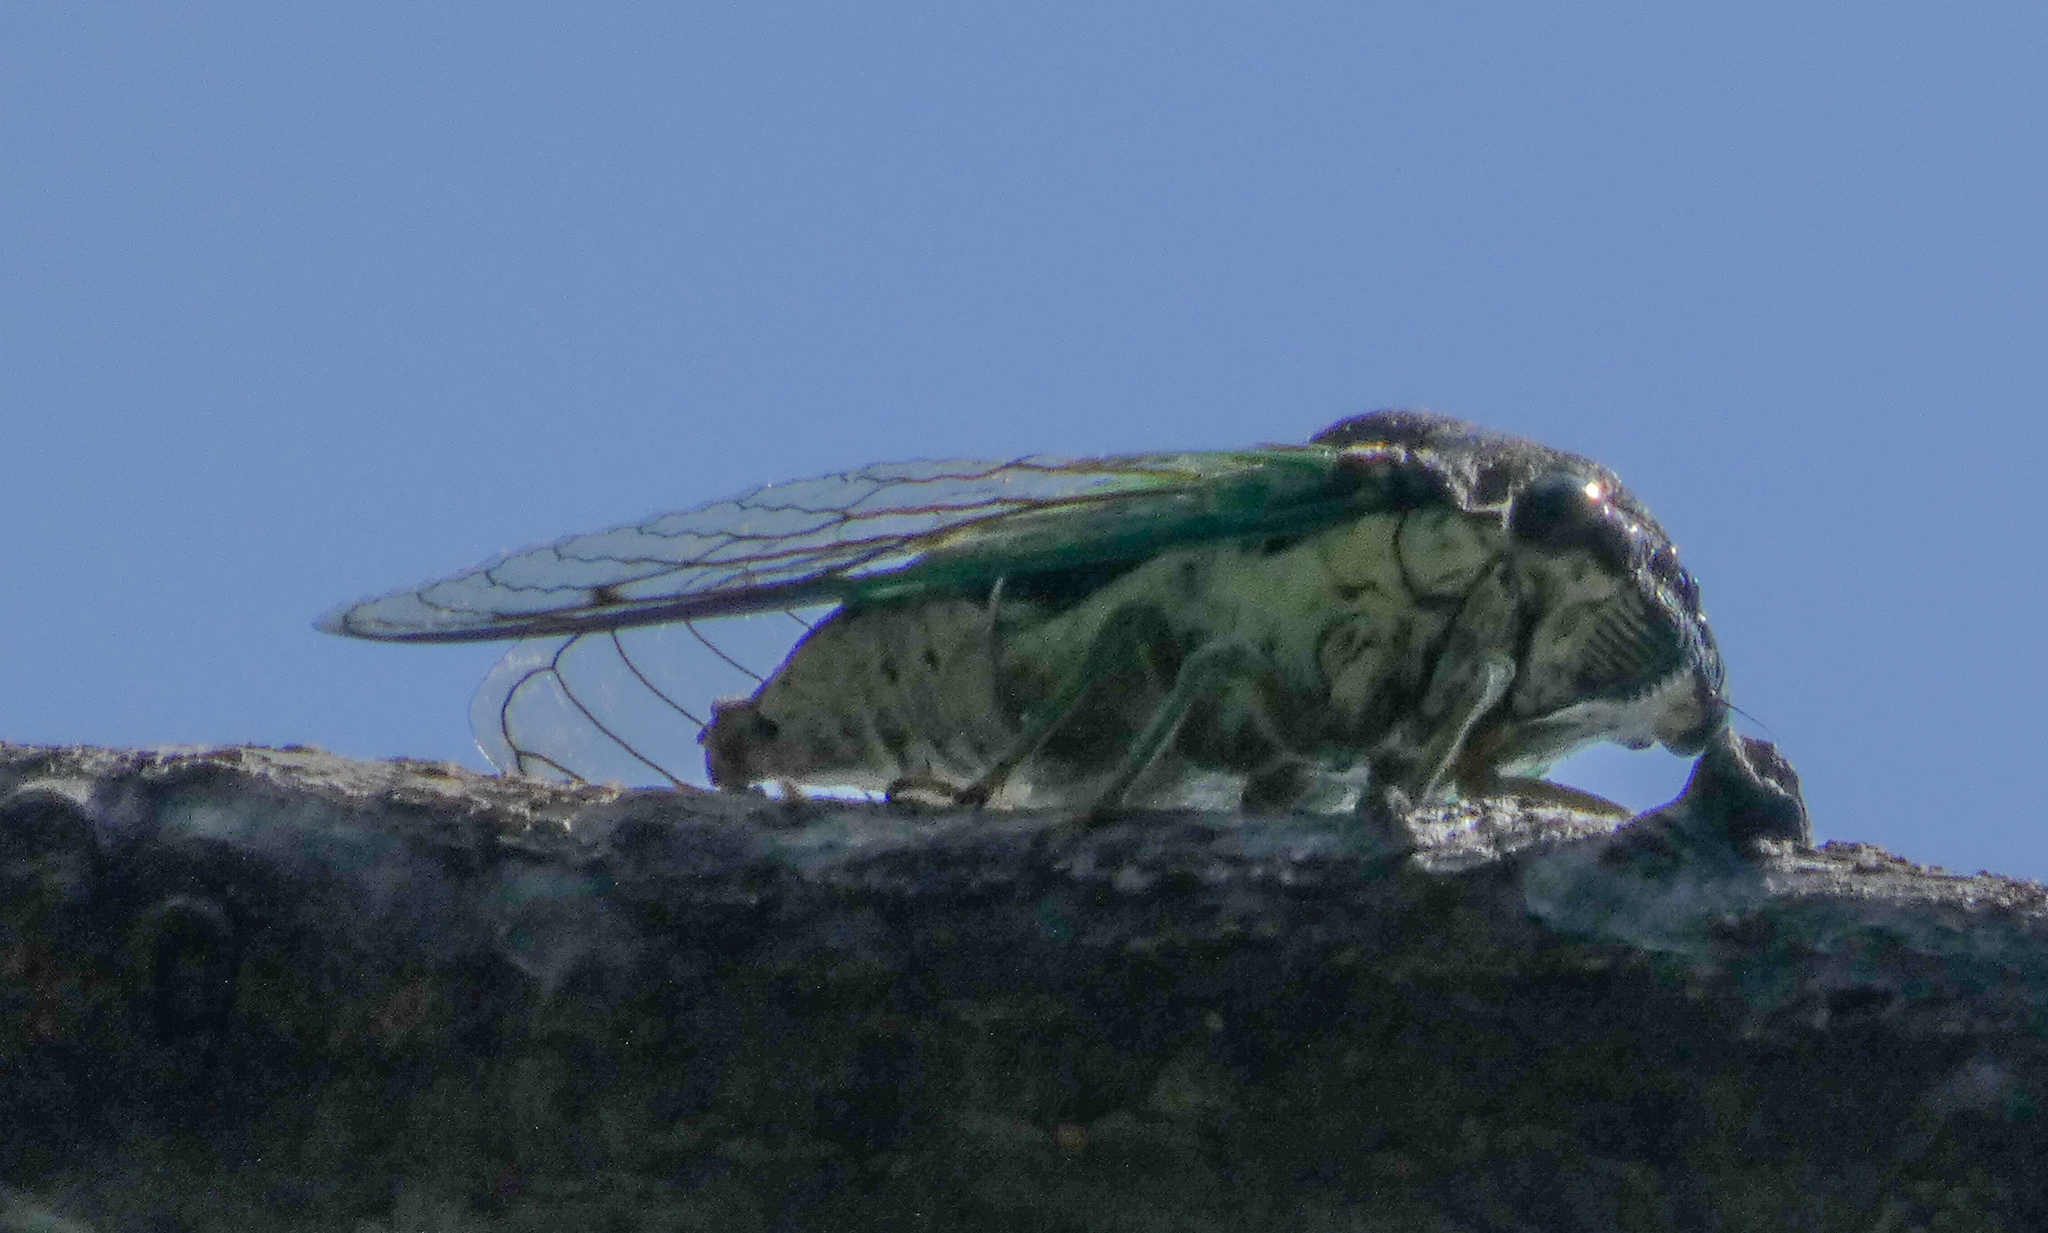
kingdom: Animalia
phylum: Arthropoda
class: Insecta
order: Hemiptera
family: Cicadidae
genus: Neotibicen
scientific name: Neotibicen tibicen
